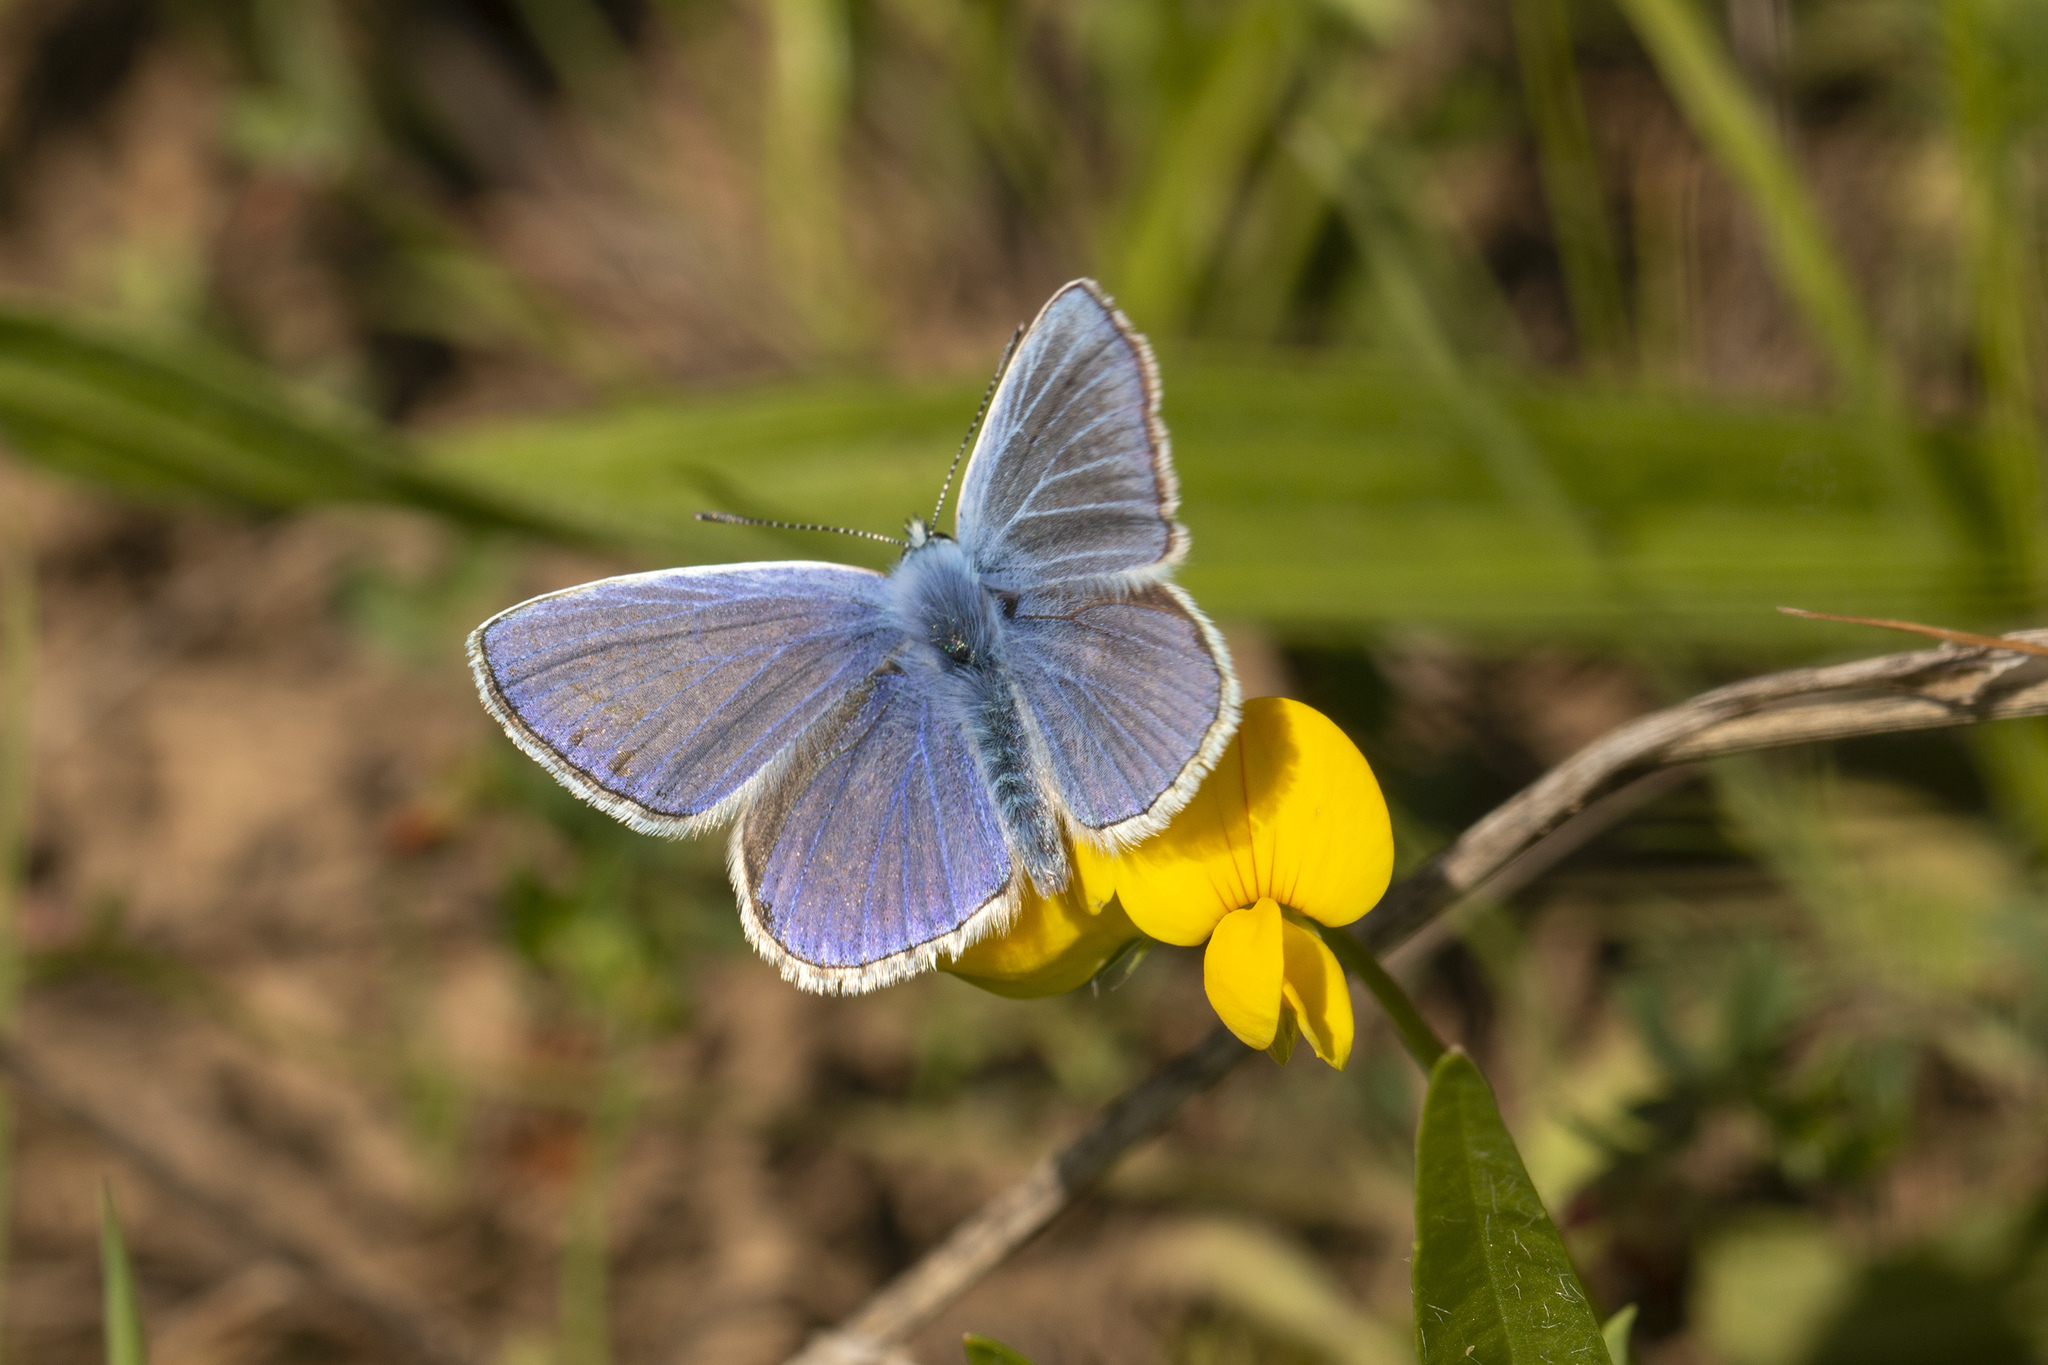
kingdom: Animalia
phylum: Arthropoda
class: Insecta
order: Lepidoptera
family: Lycaenidae
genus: Polyommatus
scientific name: Polyommatus icarus
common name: Common blue
